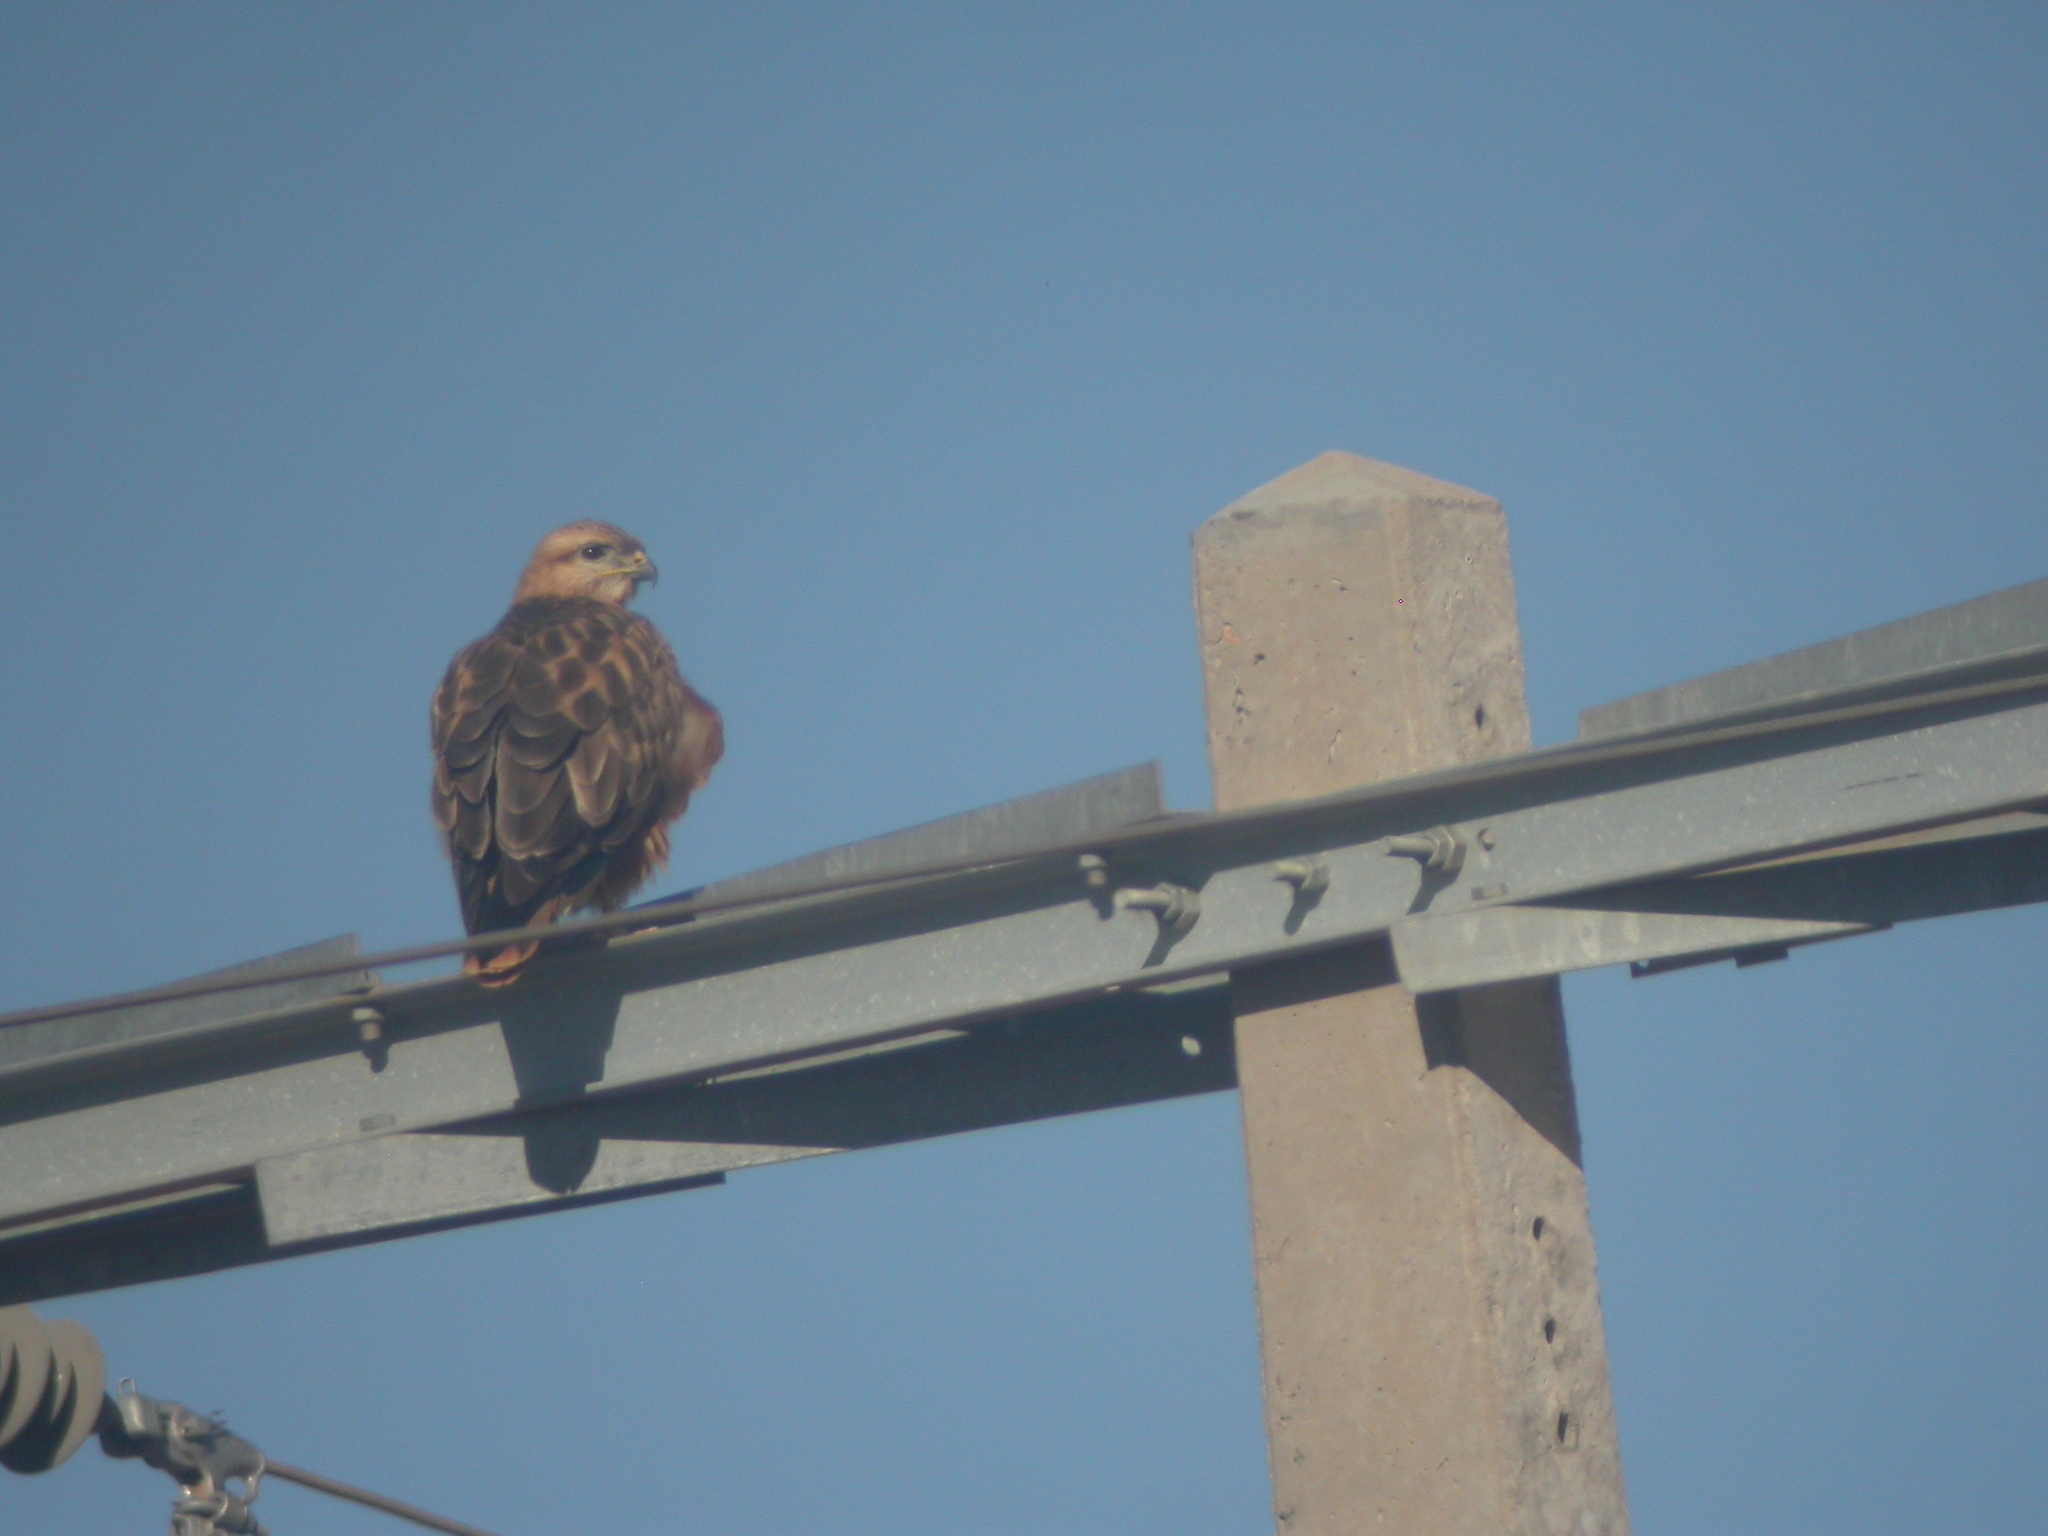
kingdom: Animalia
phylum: Chordata
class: Aves
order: Accipitriformes
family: Accipitridae
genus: Buteo
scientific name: Buteo rufinus
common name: Long-legged buzzard
